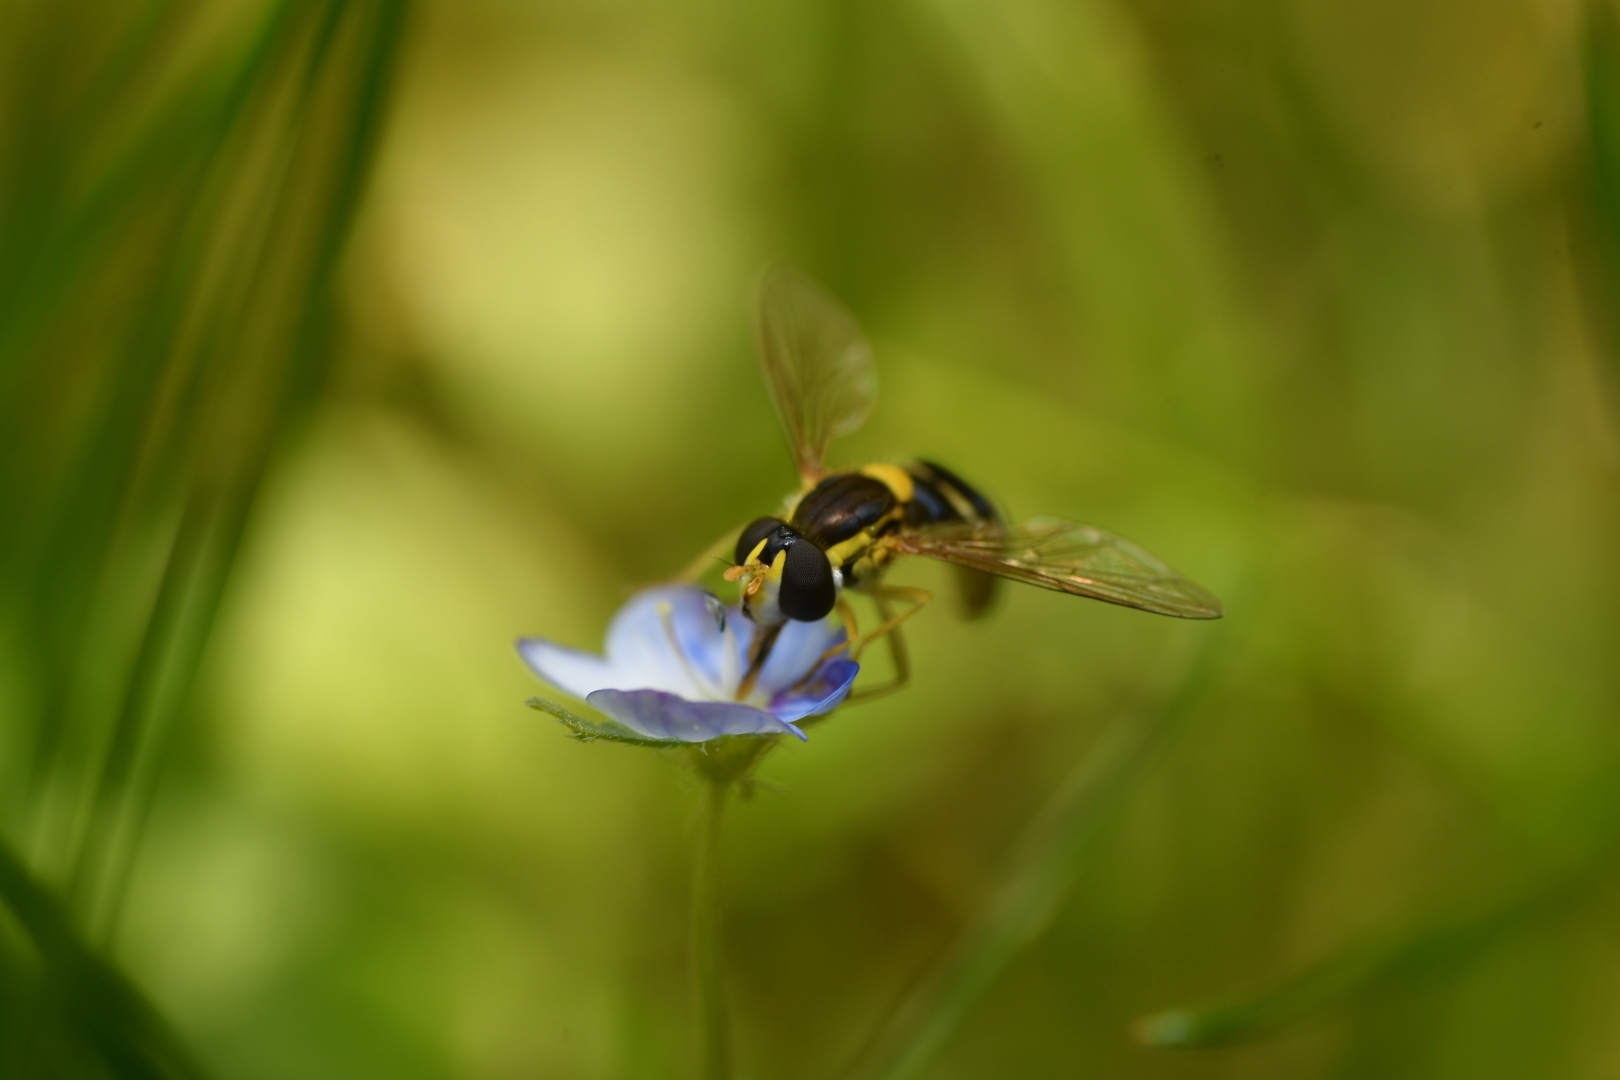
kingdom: Animalia
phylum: Arthropoda
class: Insecta
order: Diptera
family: Syrphidae
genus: Sphaerophoria
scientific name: Sphaerophoria
